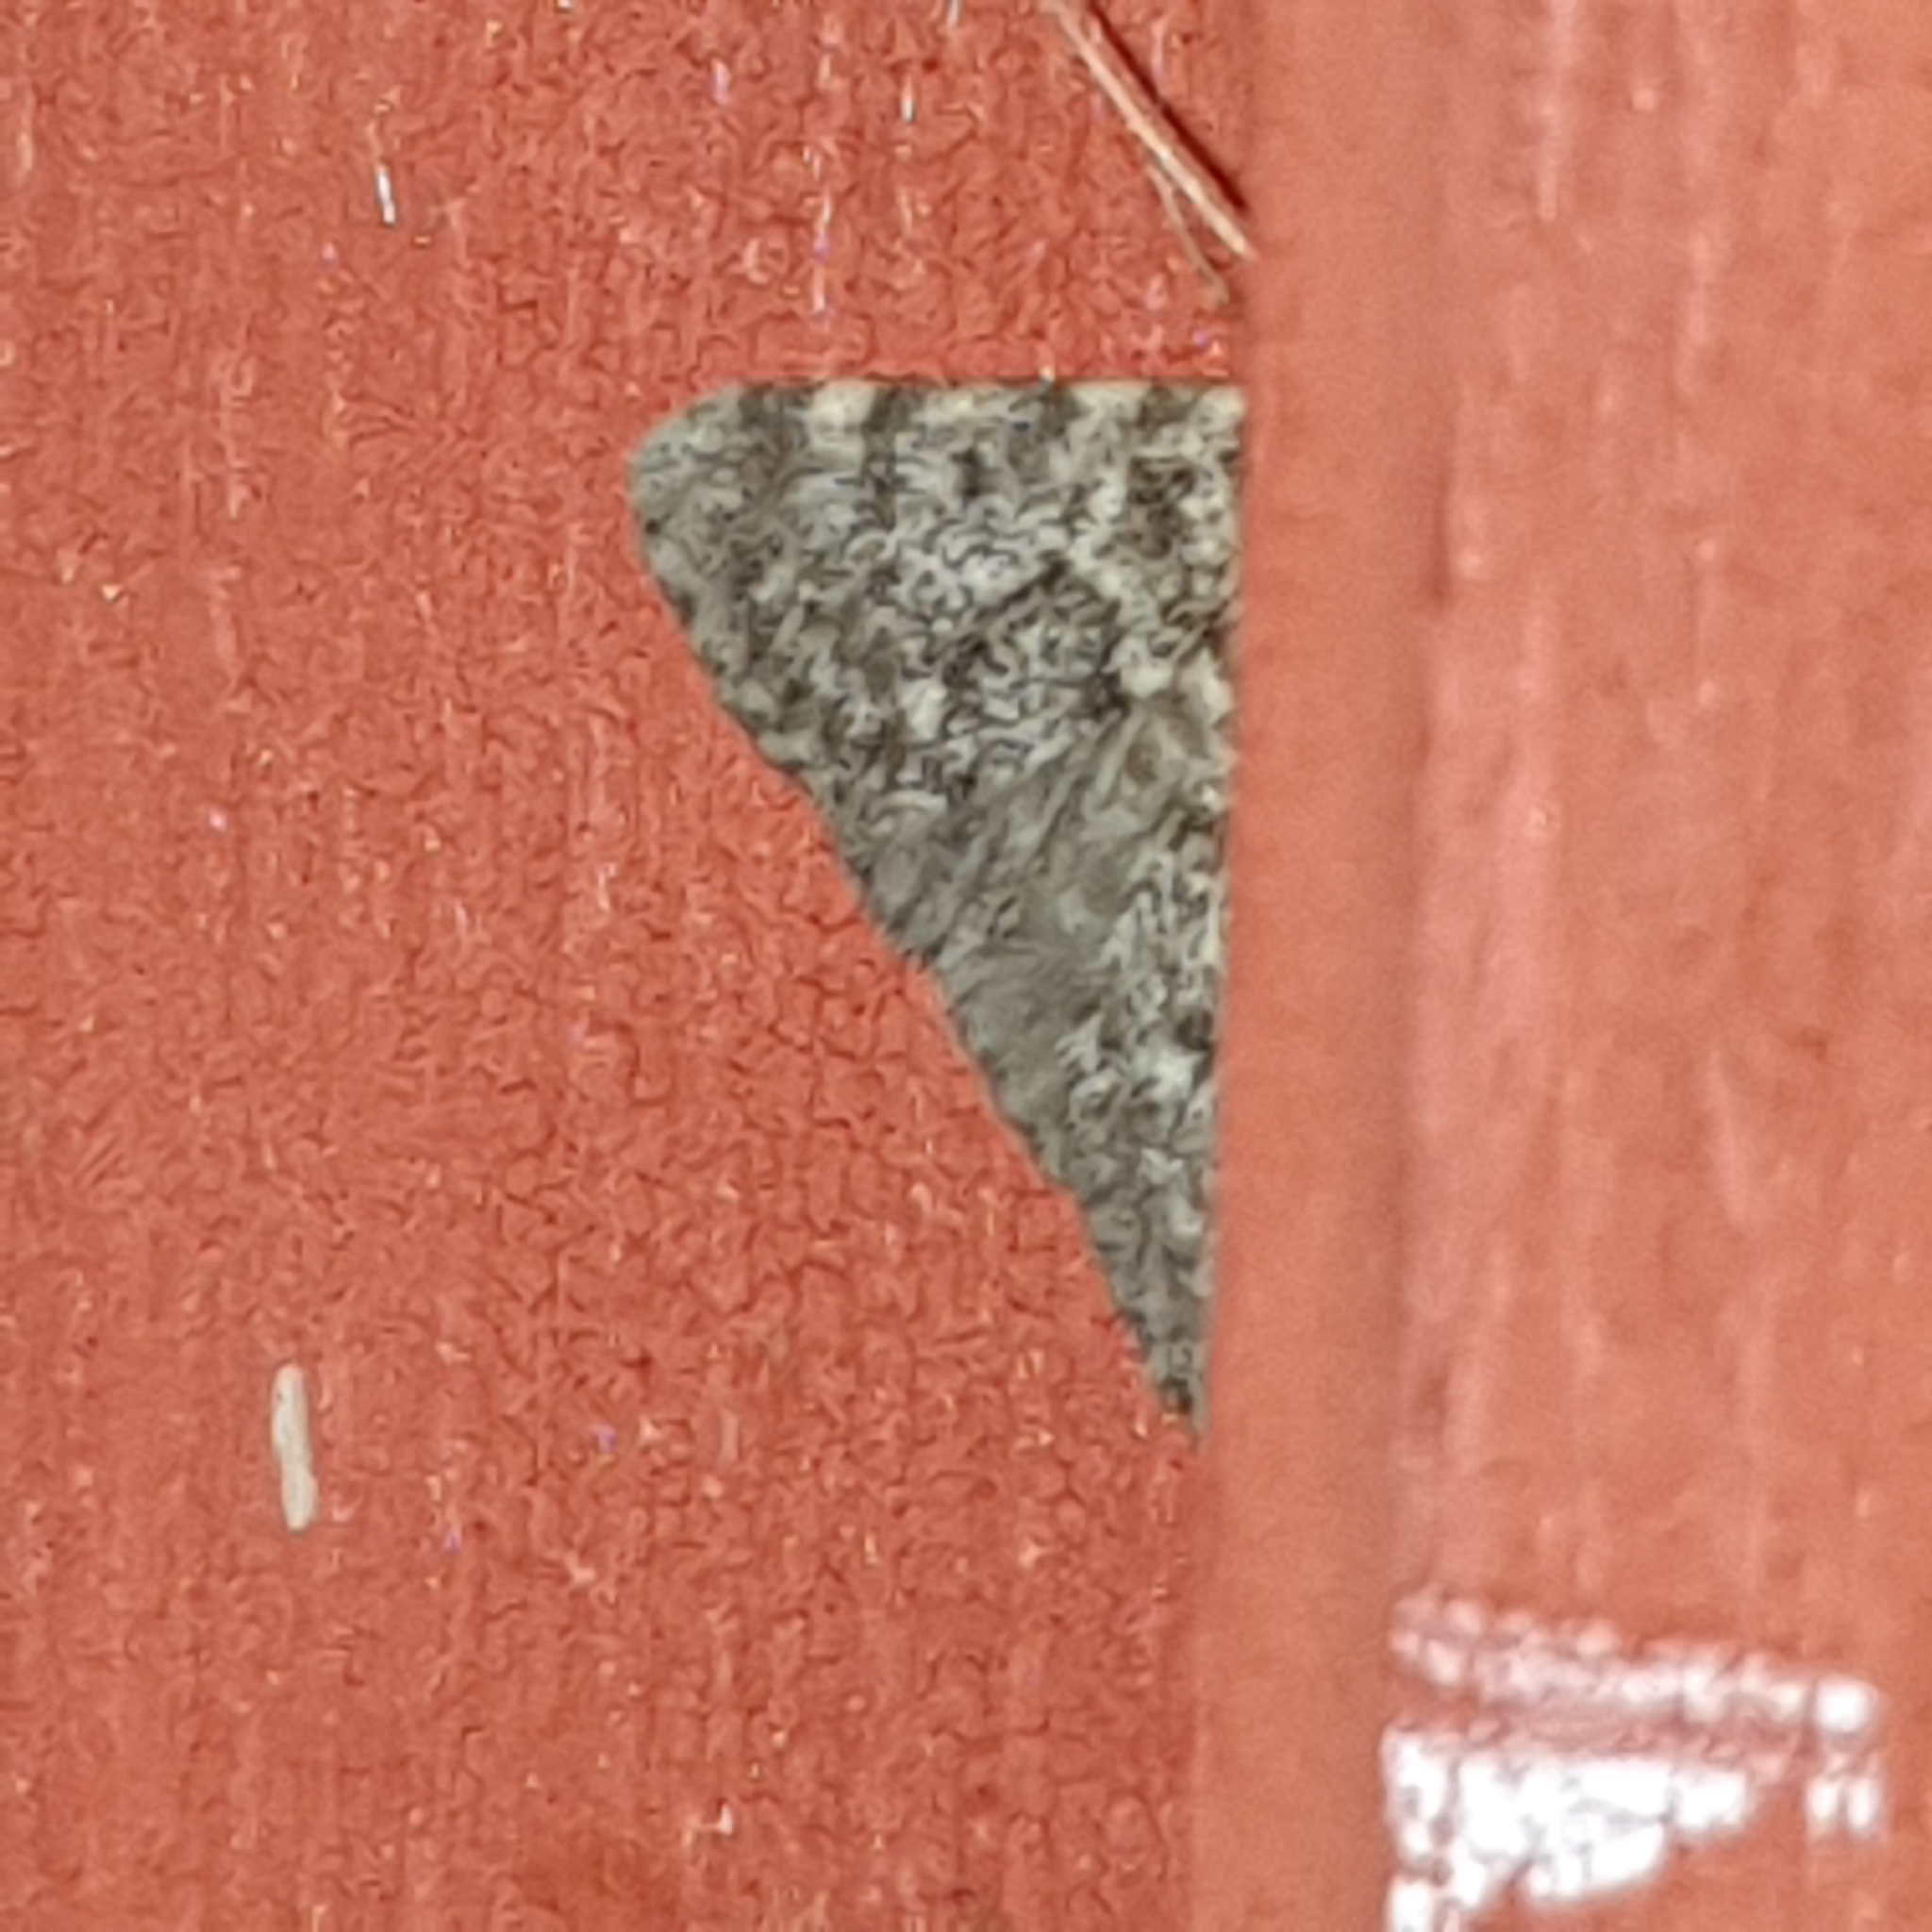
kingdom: Animalia
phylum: Arthropoda
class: Insecta
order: Lepidoptera
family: Pyralidae
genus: Aglossa
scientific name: Aglossa pinguinalis
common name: Large tabby
